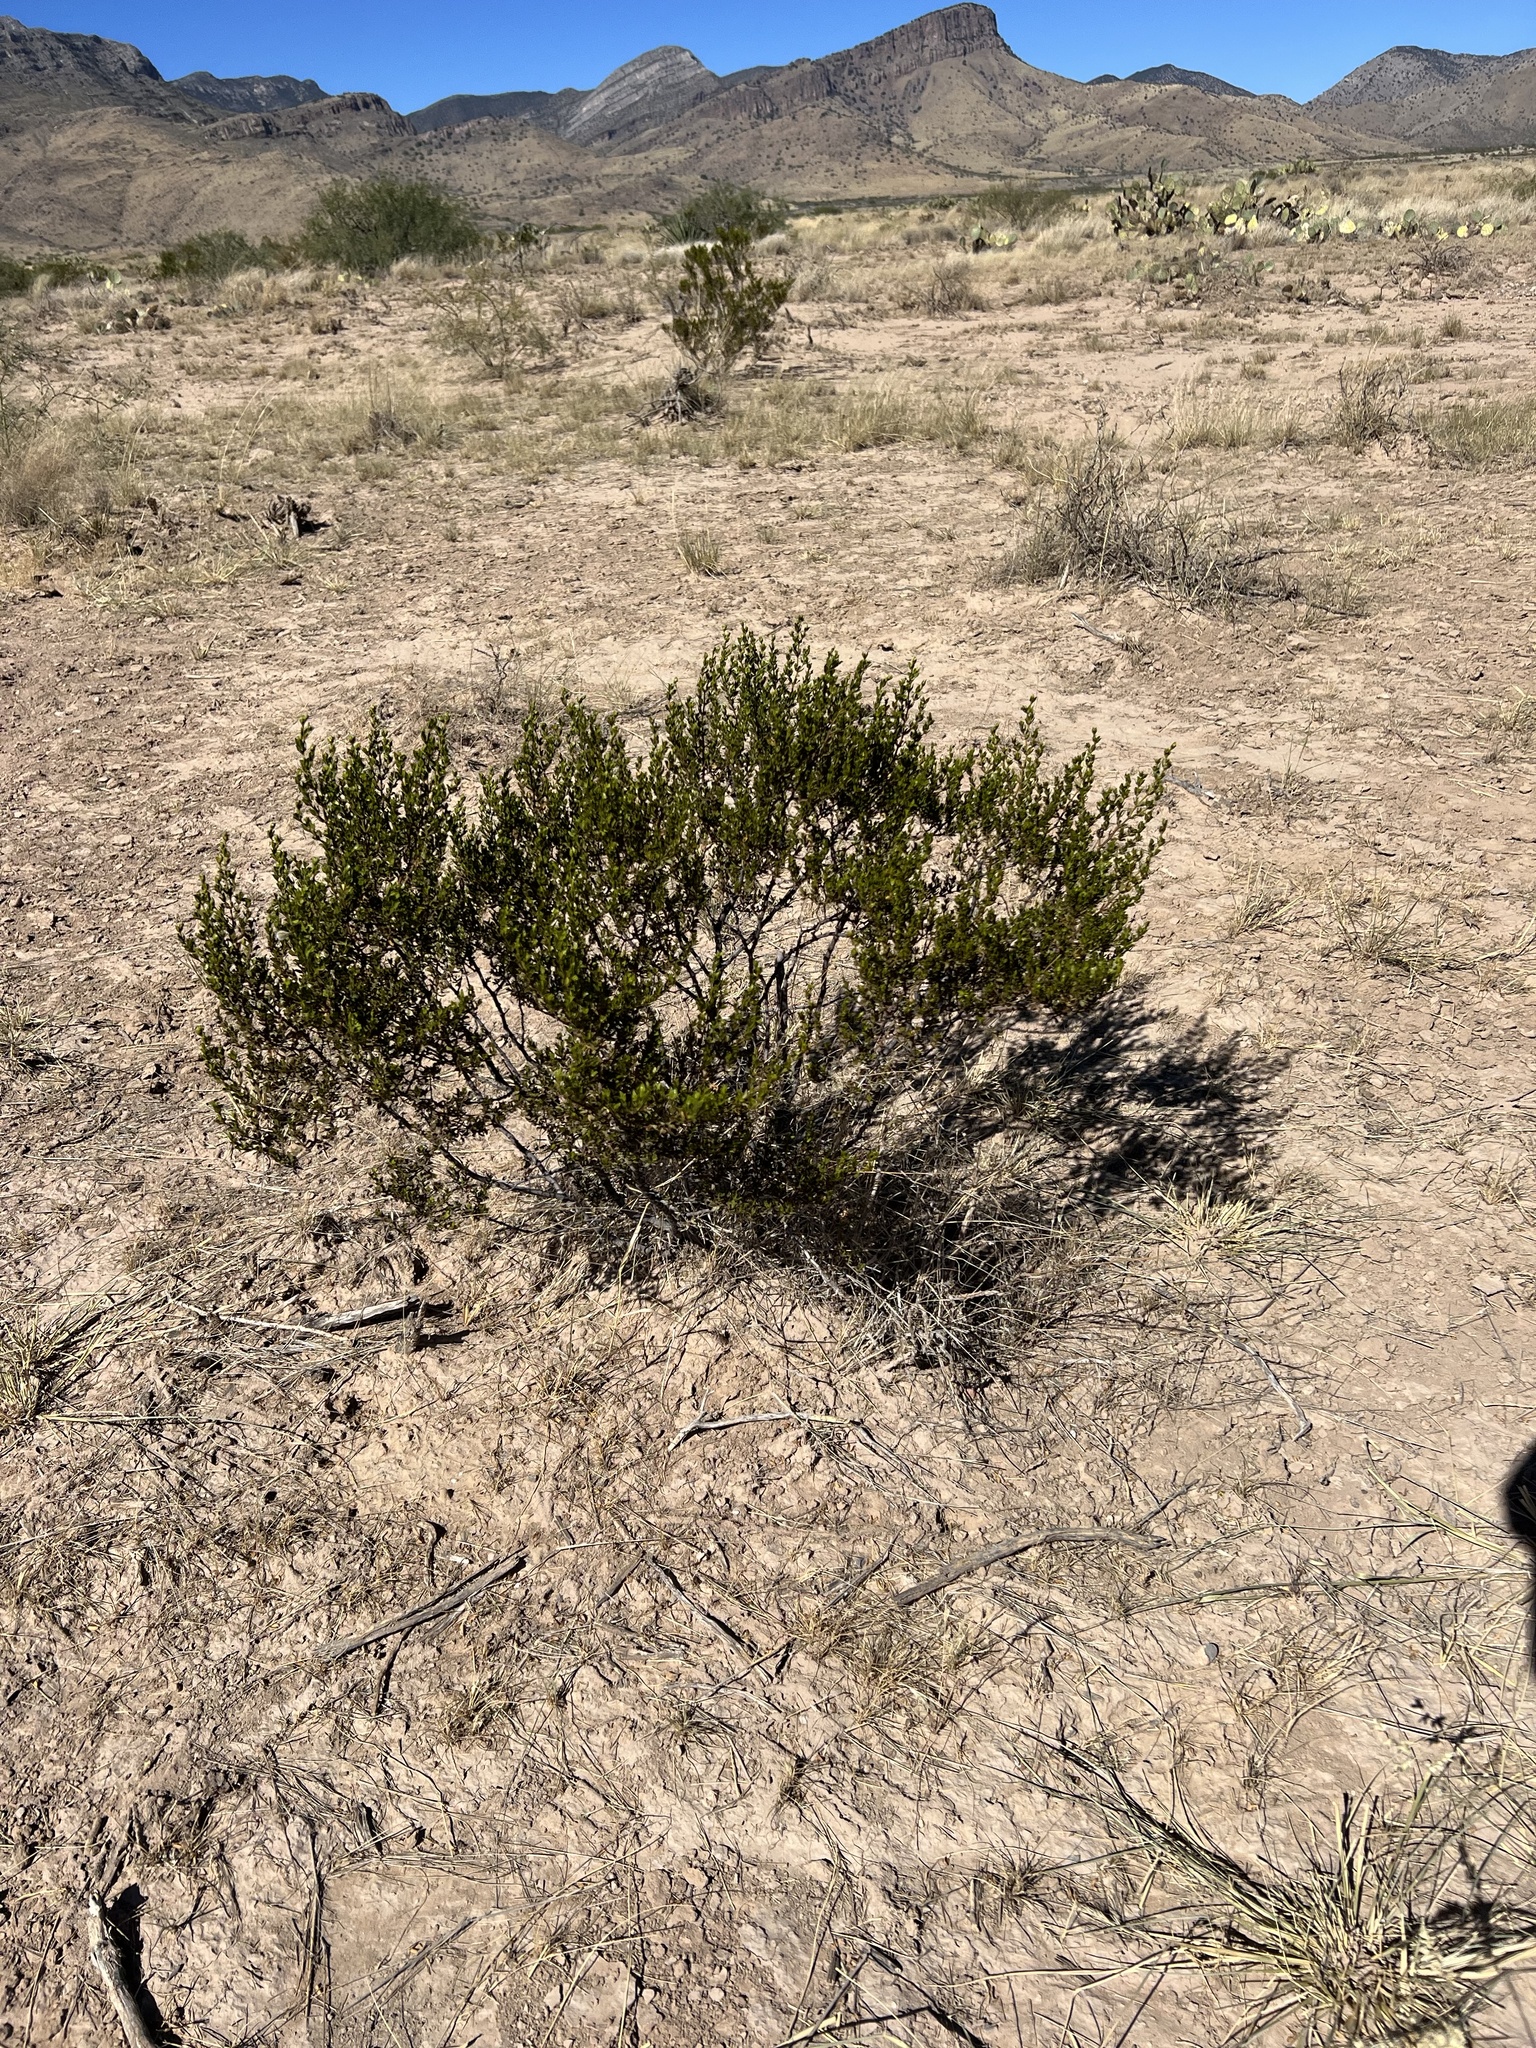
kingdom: Plantae
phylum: Tracheophyta
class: Magnoliopsida
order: Zygophyllales
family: Zygophyllaceae
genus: Larrea
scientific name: Larrea tridentata
